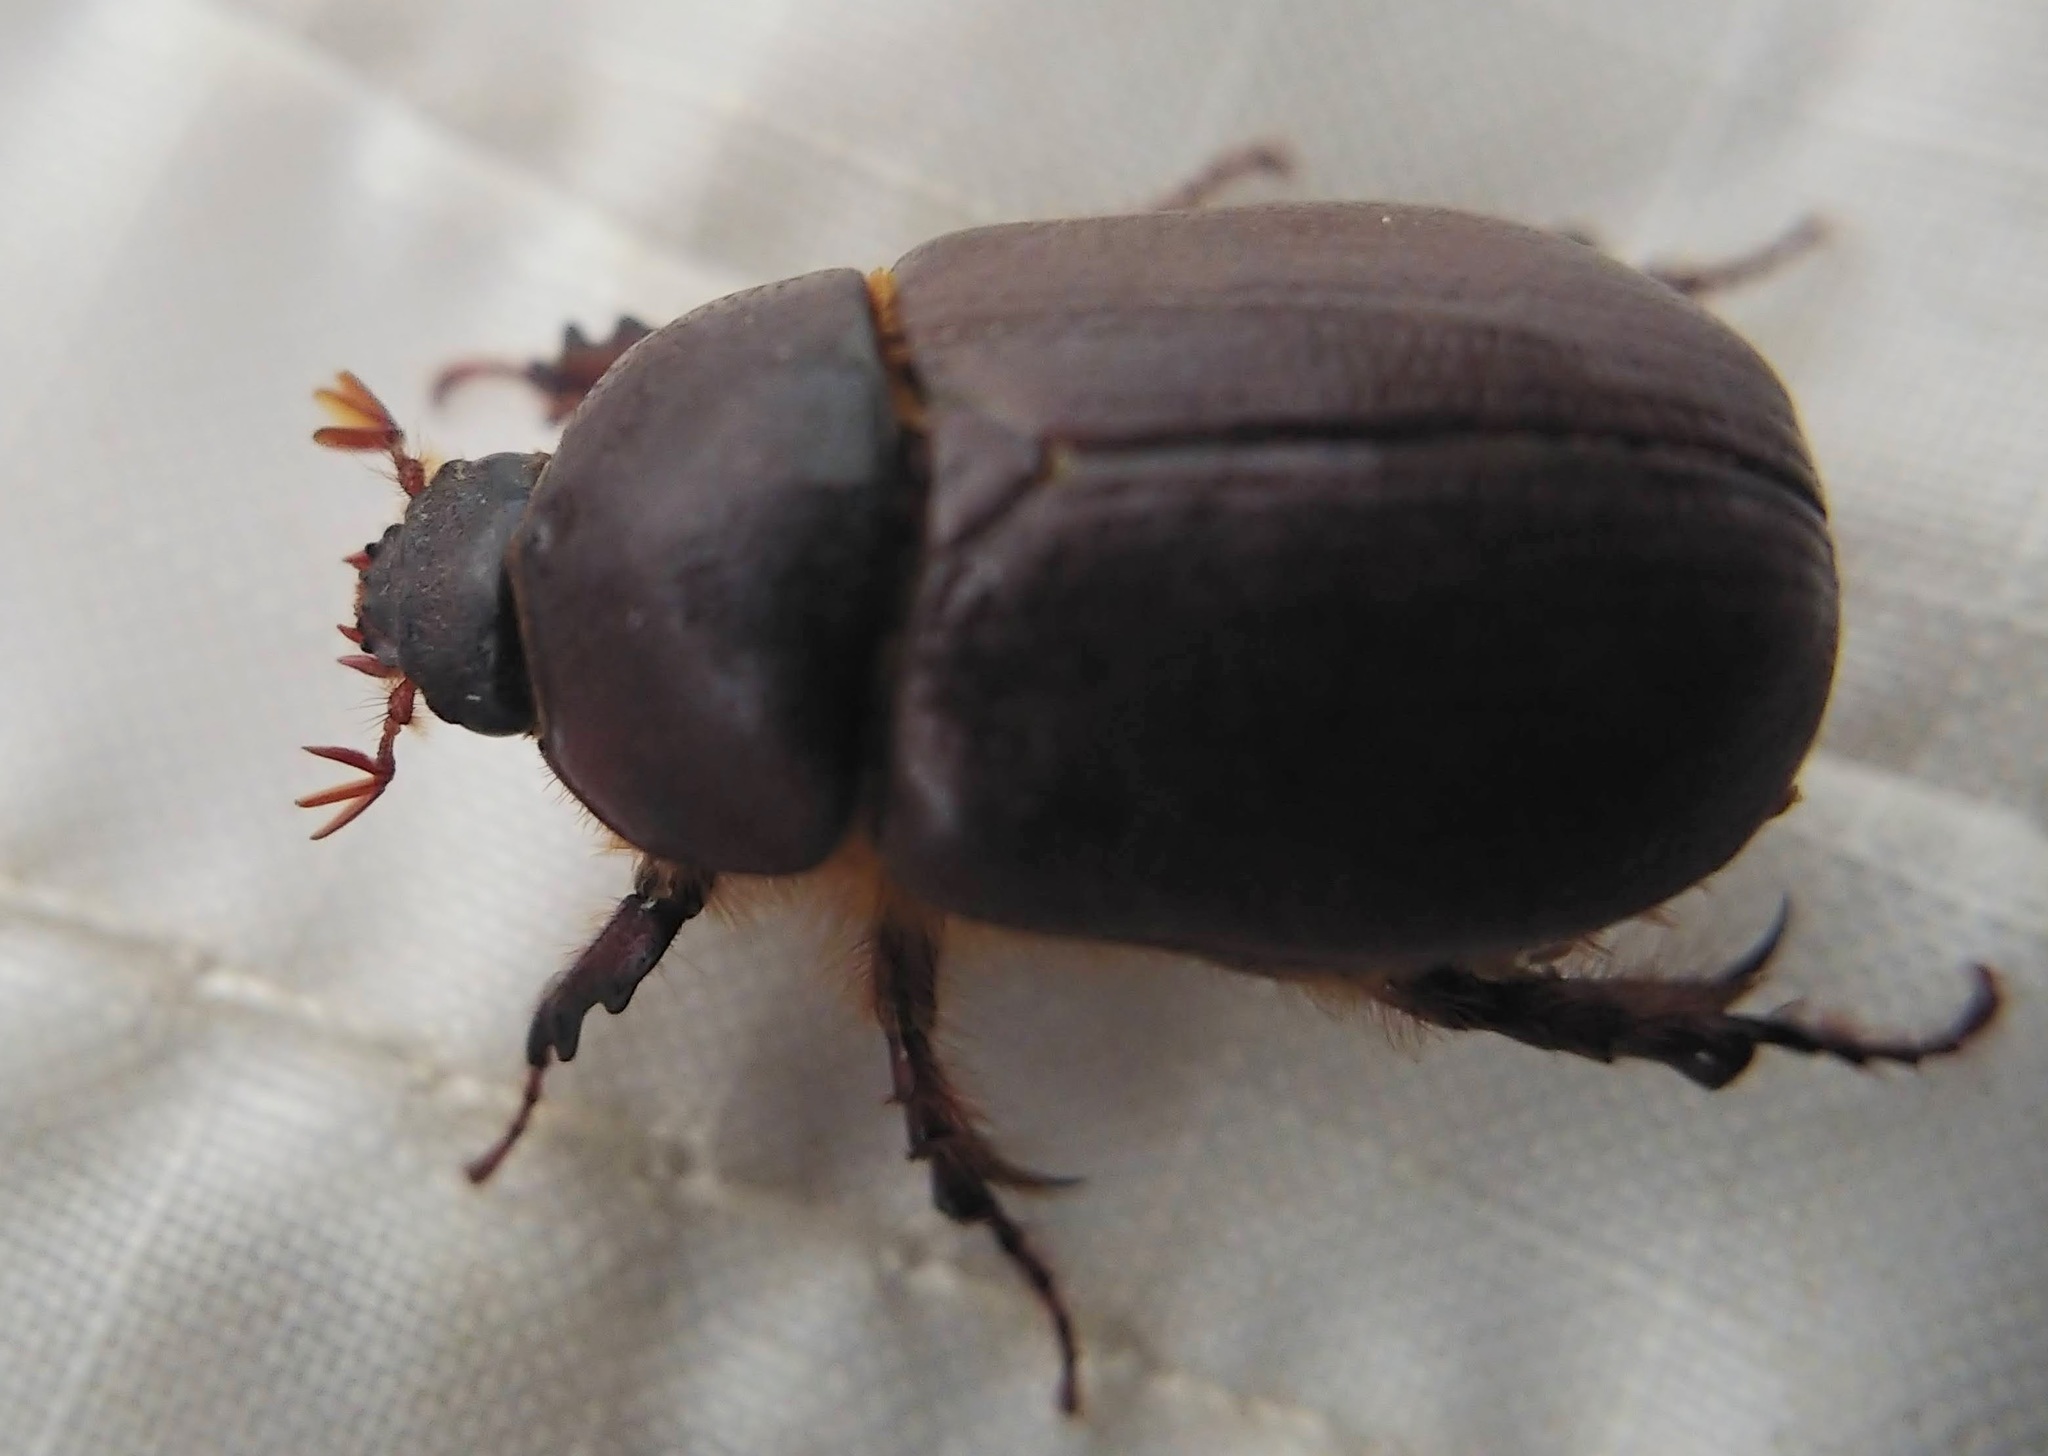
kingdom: Animalia
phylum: Arthropoda
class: Insecta
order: Coleoptera
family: Scarabaeidae
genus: Ligyrus
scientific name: Ligyrus gibbosus
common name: Carrot beetle
